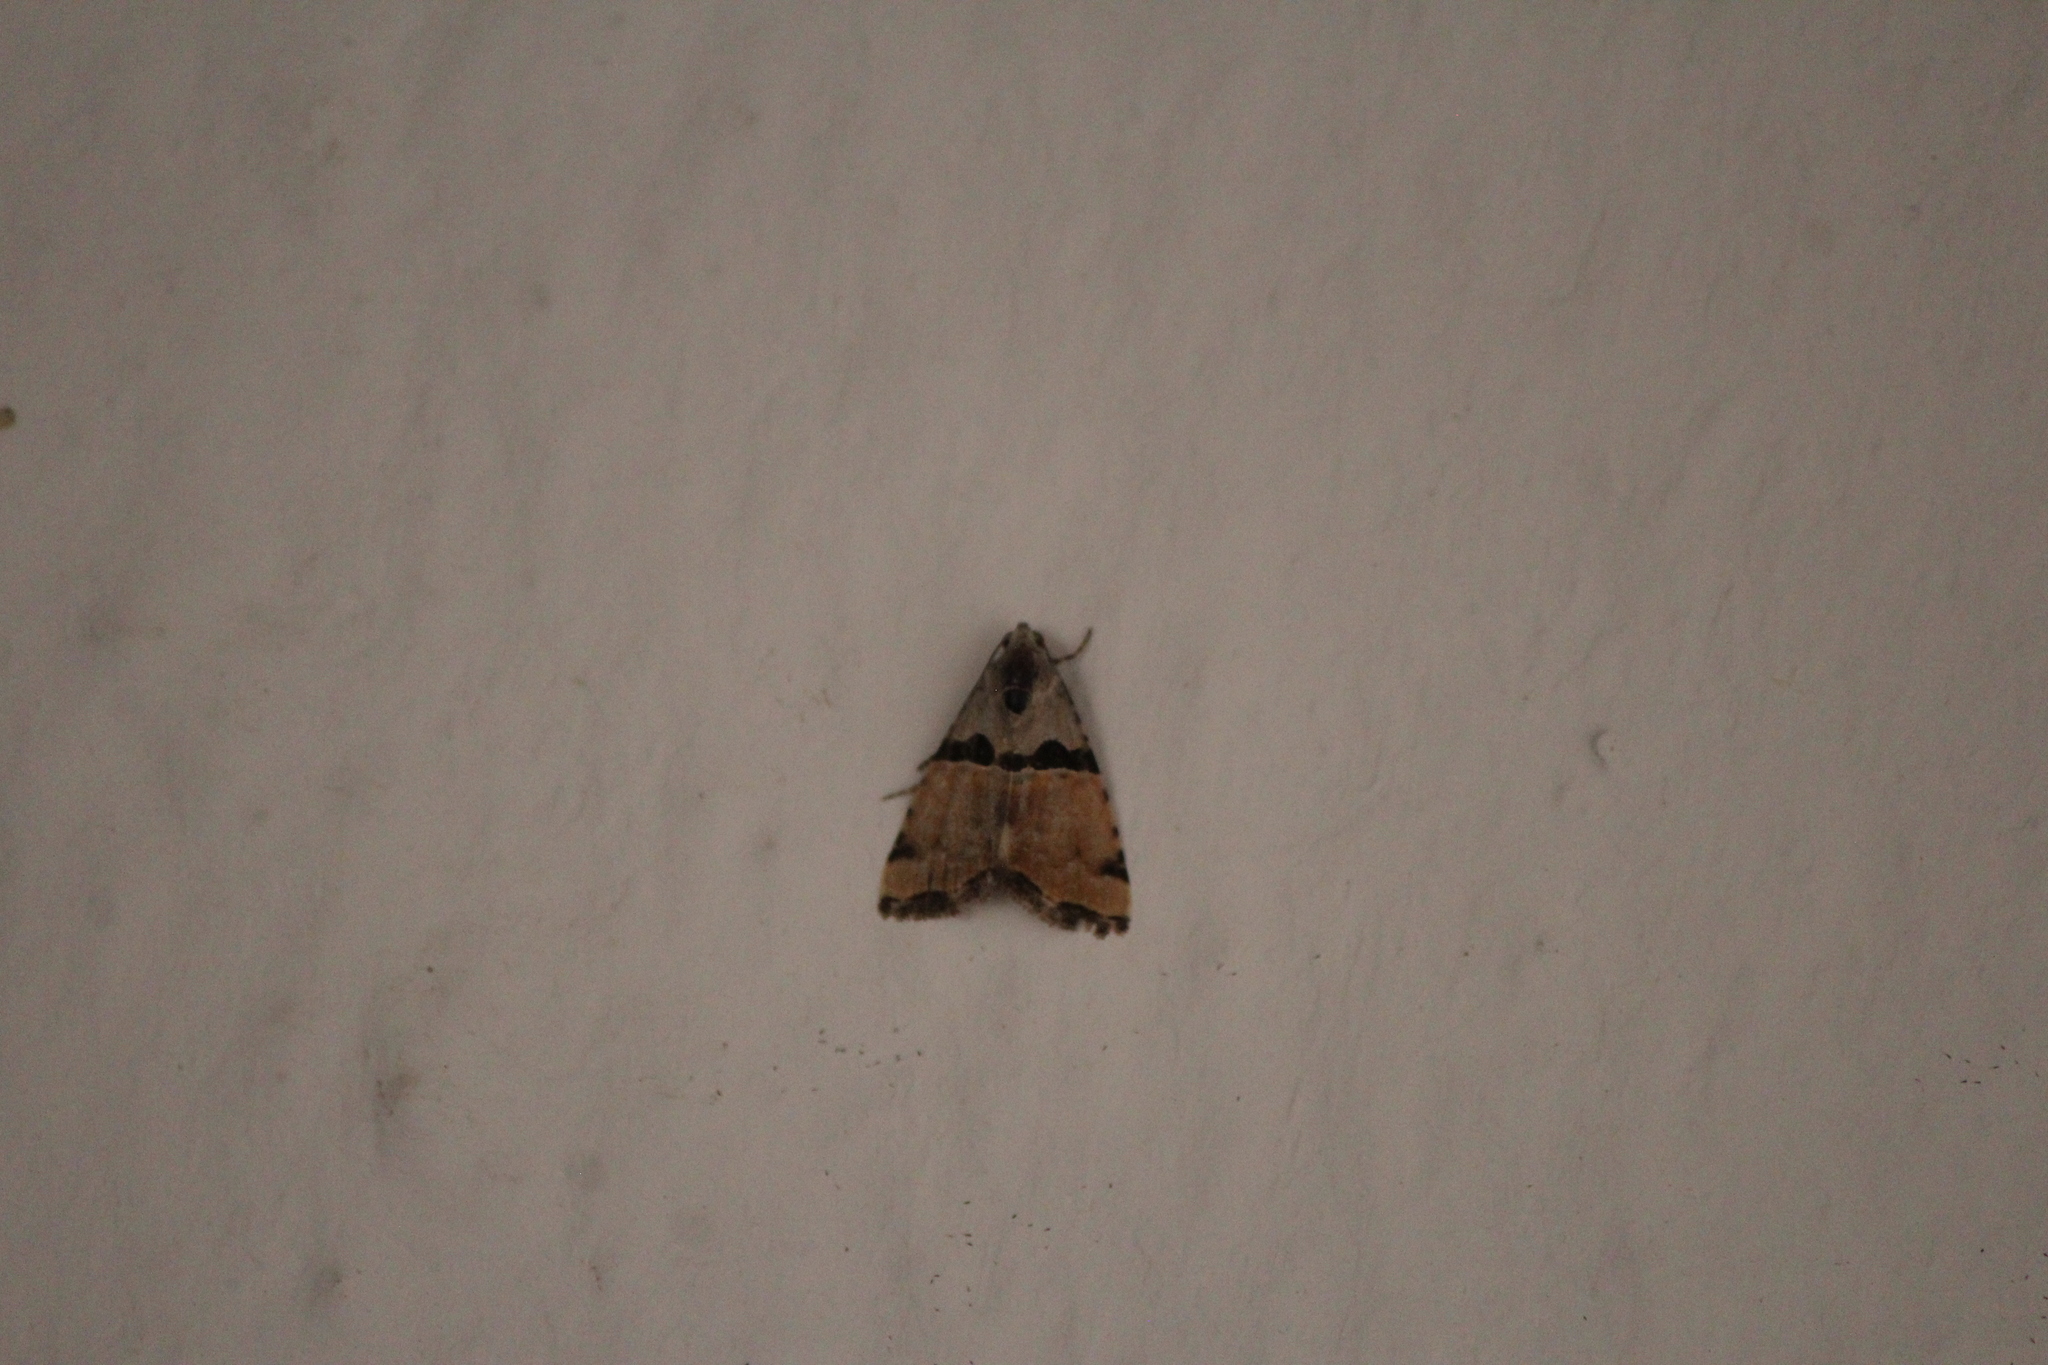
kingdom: Animalia
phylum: Arthropoda
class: Insecta
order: Lepidoptera
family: Noctuidae
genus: Cobubatha
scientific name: Cobubatha lixiva
